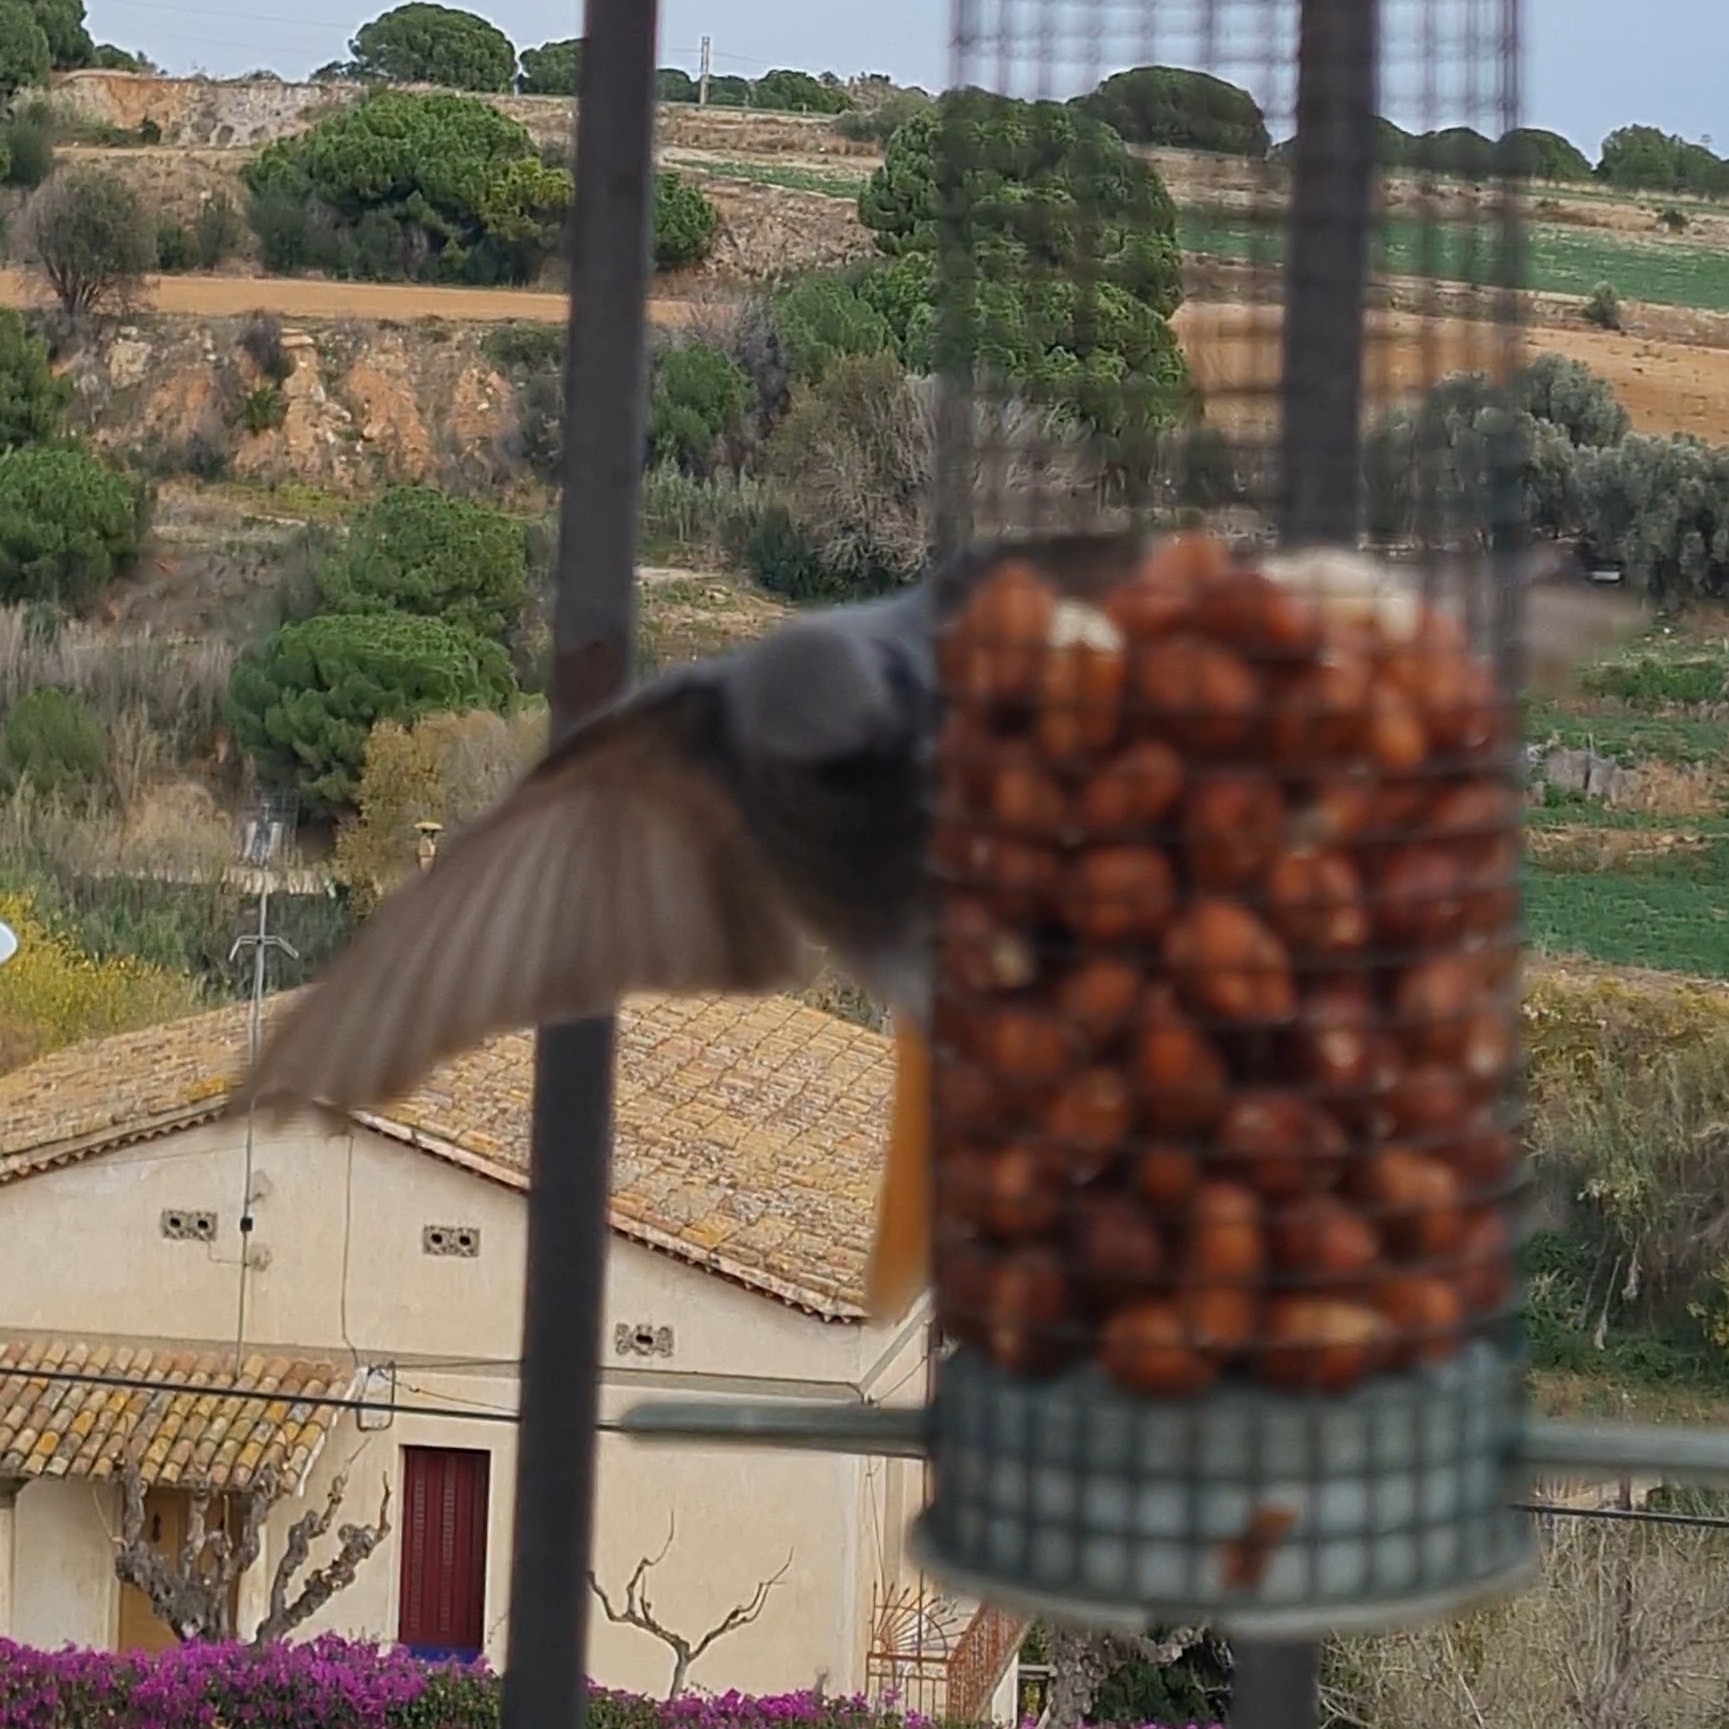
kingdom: Animalia
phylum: Chordata
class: Aves
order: Passeriformes
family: Muscicapidae
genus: Phoenicurus
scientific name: Phoenicurus ochruros
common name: Black redstart
